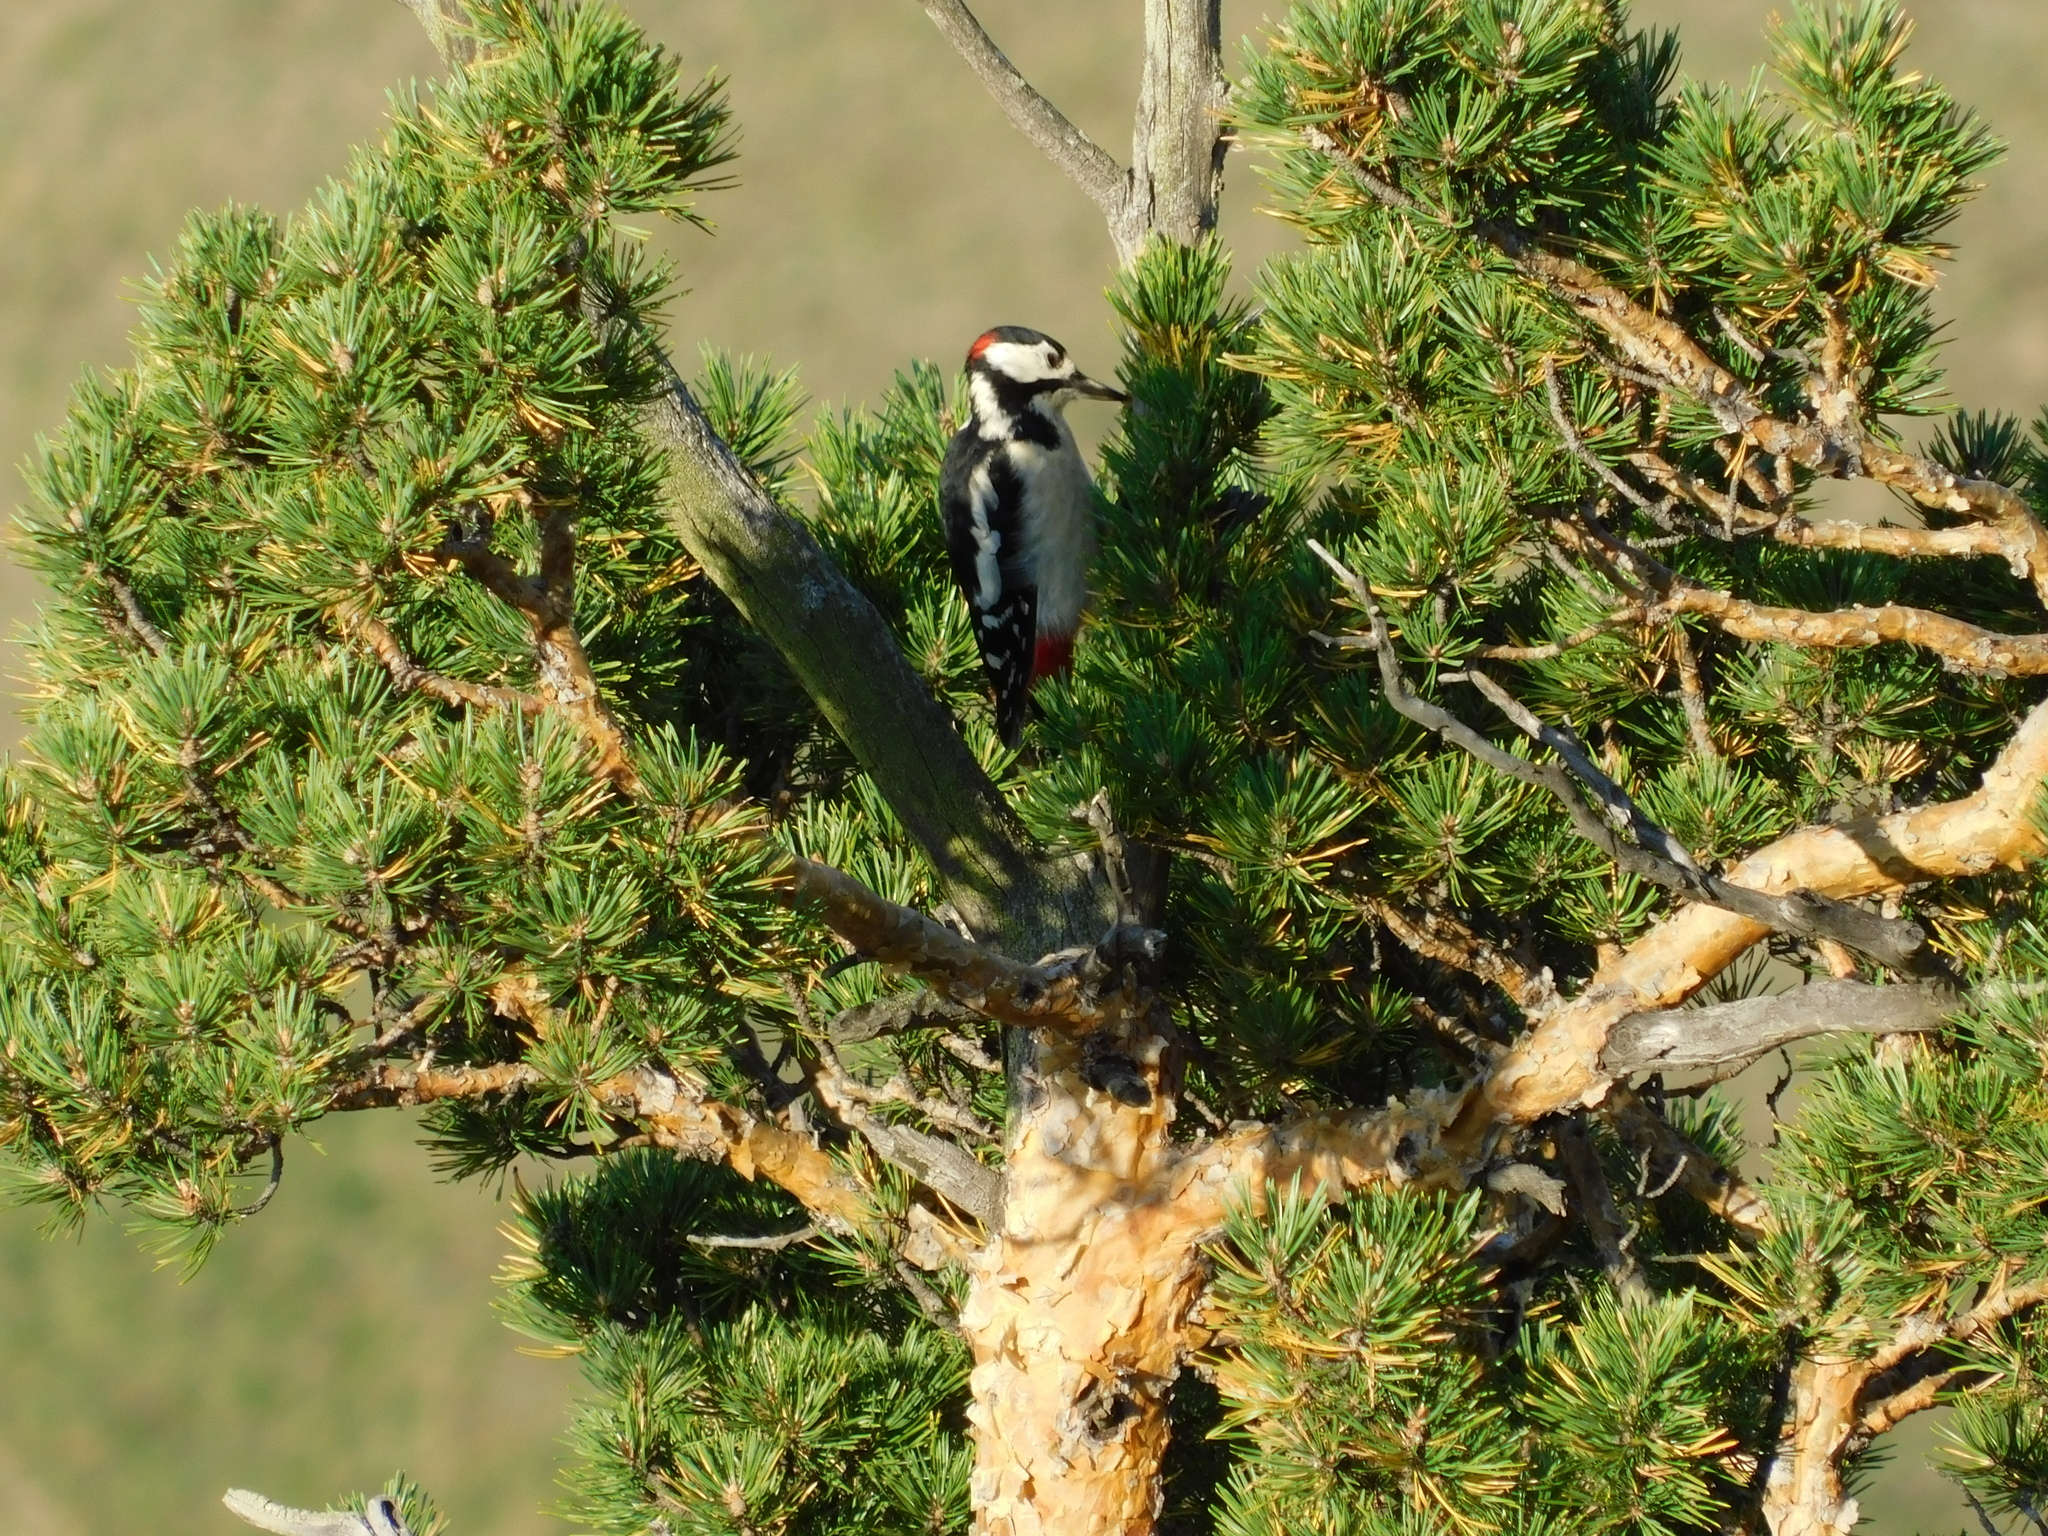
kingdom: Animalia
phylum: Chordata
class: Aves
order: Piciformes
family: Picidae
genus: Dendrocopos
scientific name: Dendrocopos major
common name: Great spotted woodpecker
